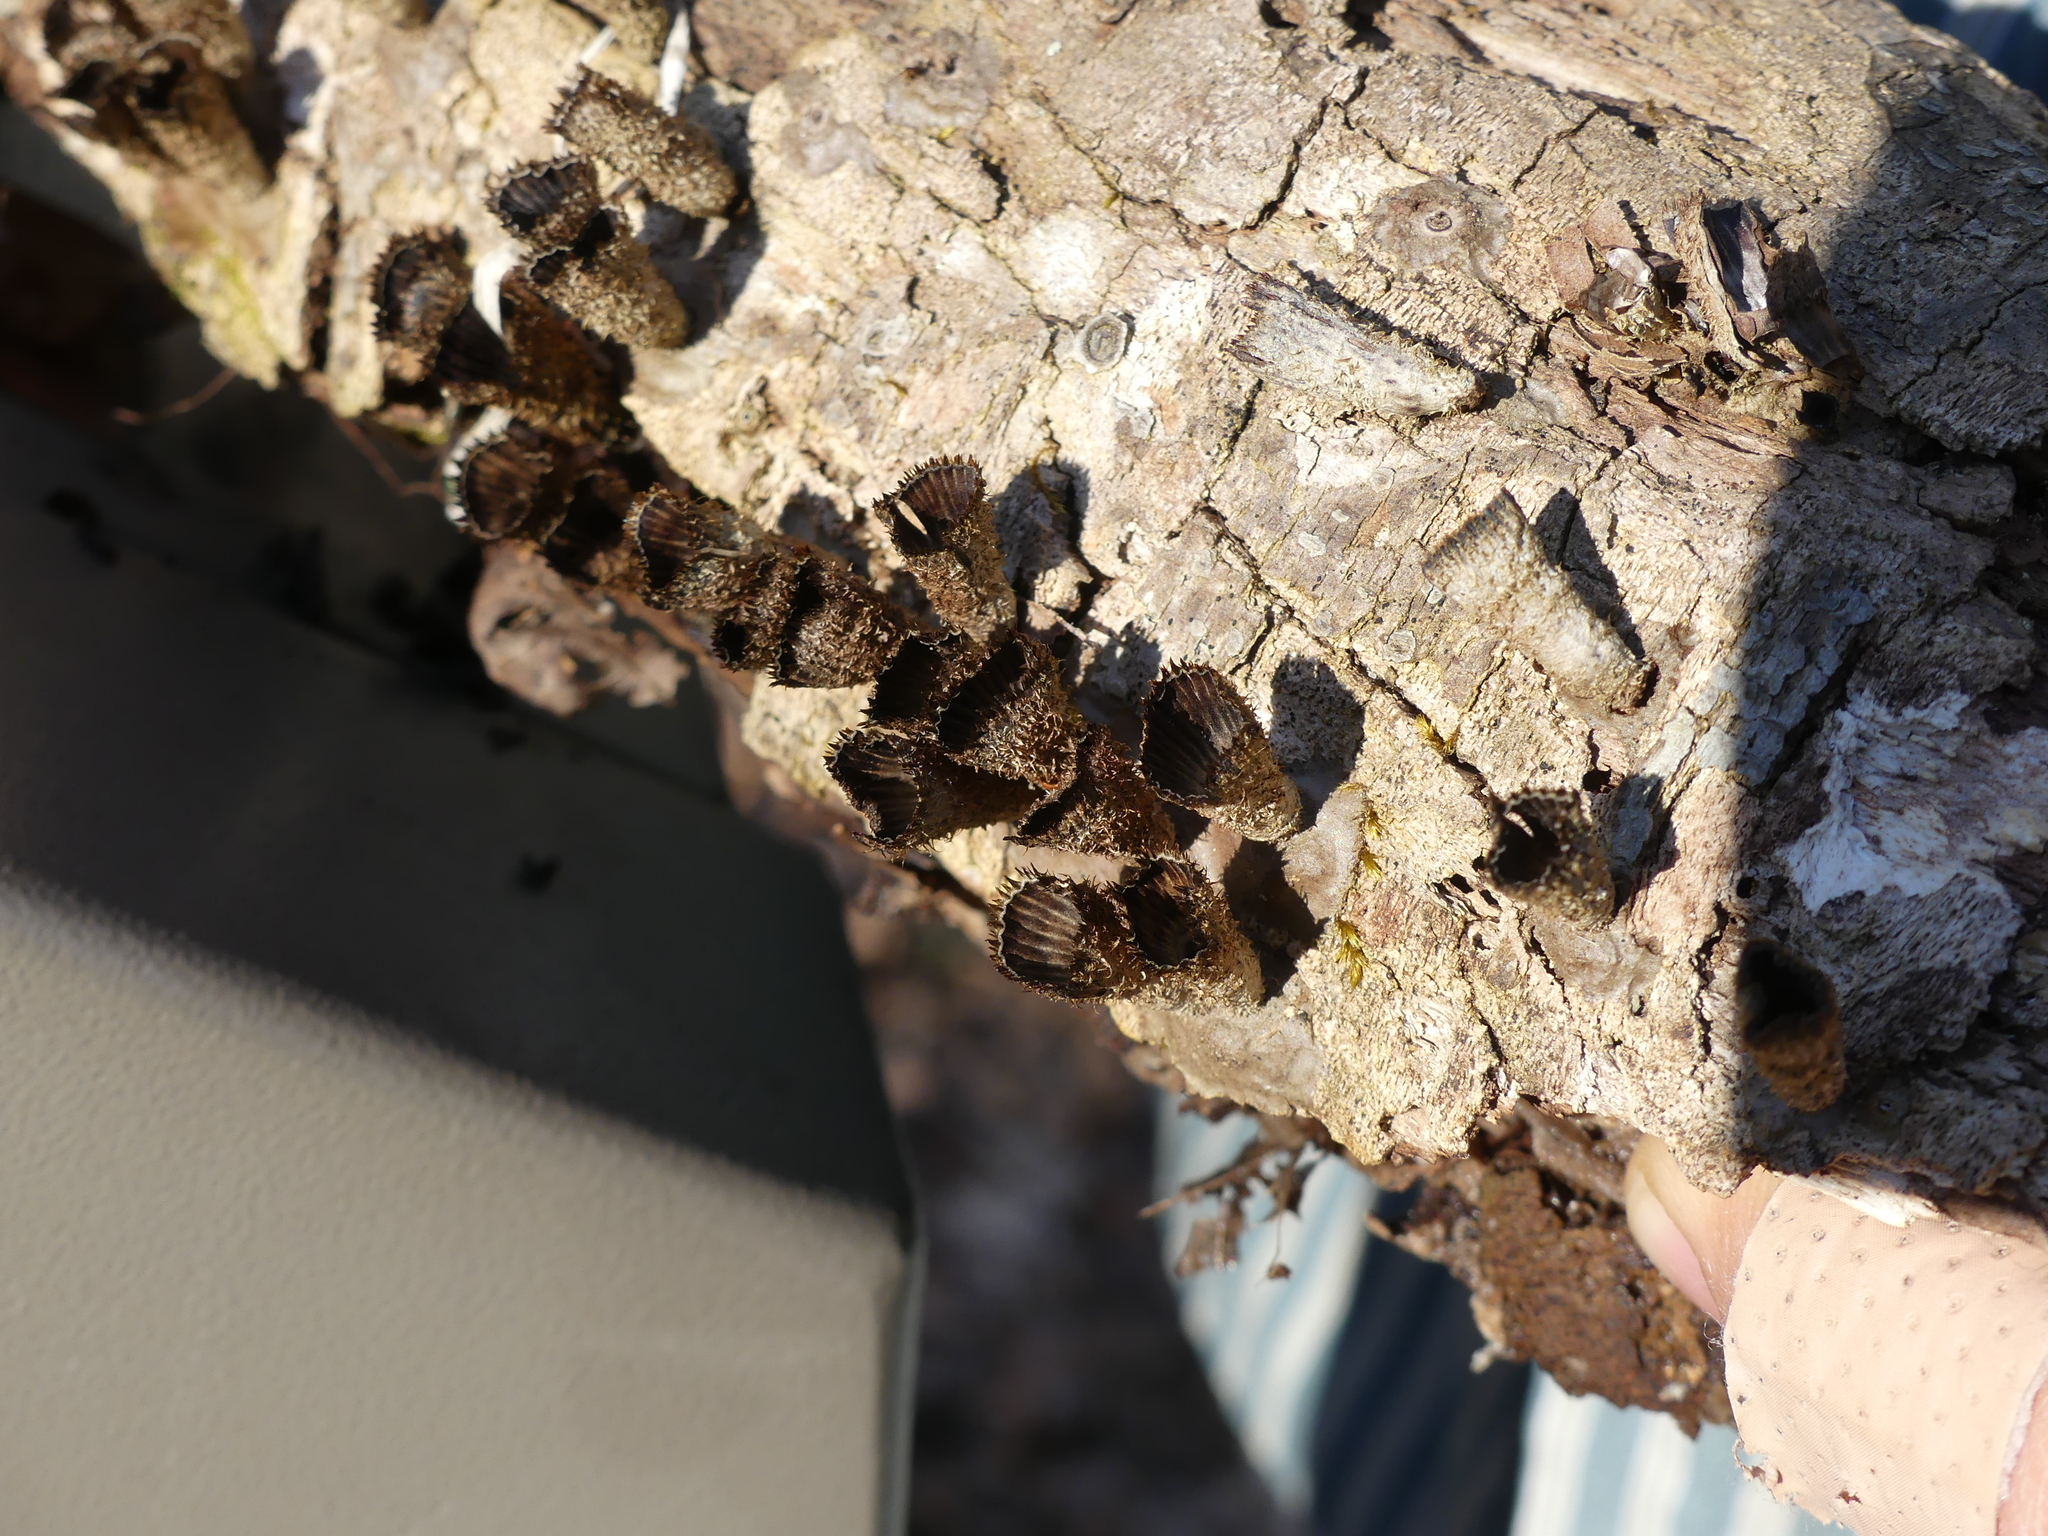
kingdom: Fungi
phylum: Basidiomycota
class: Agaricomycetes
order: Agaricales
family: Agaricaceae
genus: Cyathus
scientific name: Cyathus striatus
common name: Fluted bird's nest
